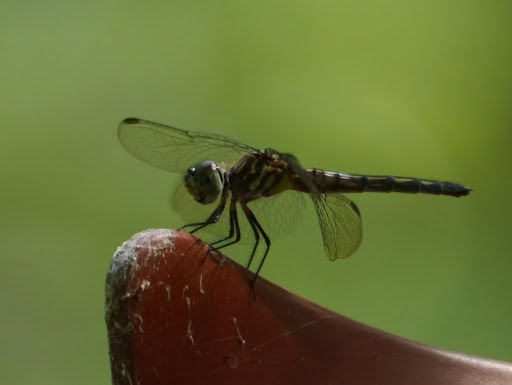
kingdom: Animalia
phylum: Arthropoda
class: Insecta
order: Odonata
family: Libellulidae
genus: Pachydiplax
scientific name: Pachydiplax longipennis
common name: Blue dasher
